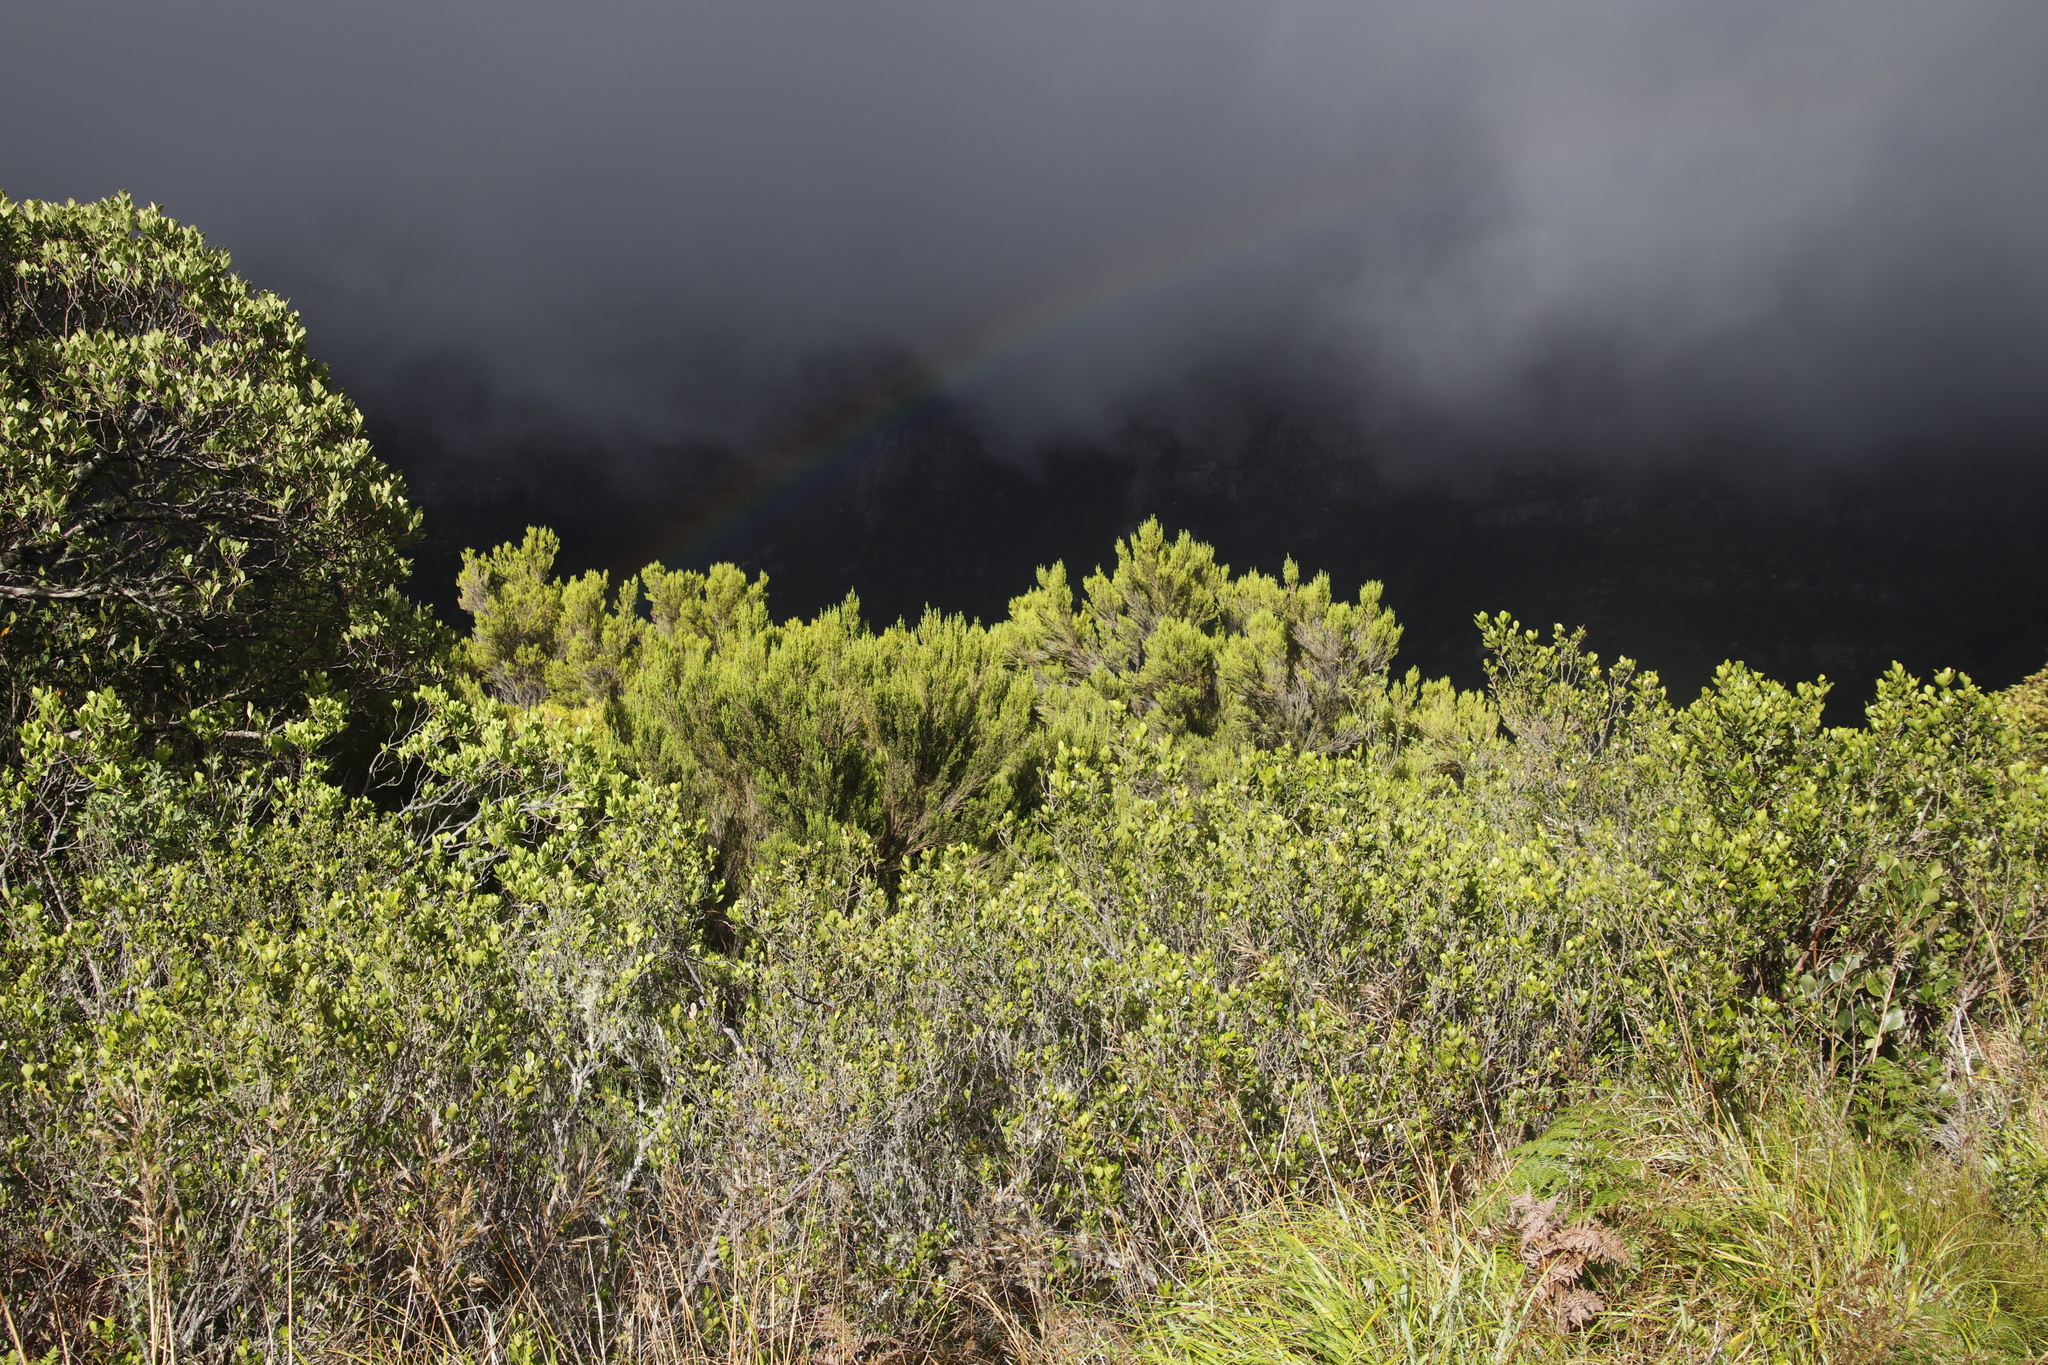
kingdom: Plantae
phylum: Tracheophyta
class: Magnoliopsida
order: Ericales
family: Ericaceae
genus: Erica
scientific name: Erica tristis
